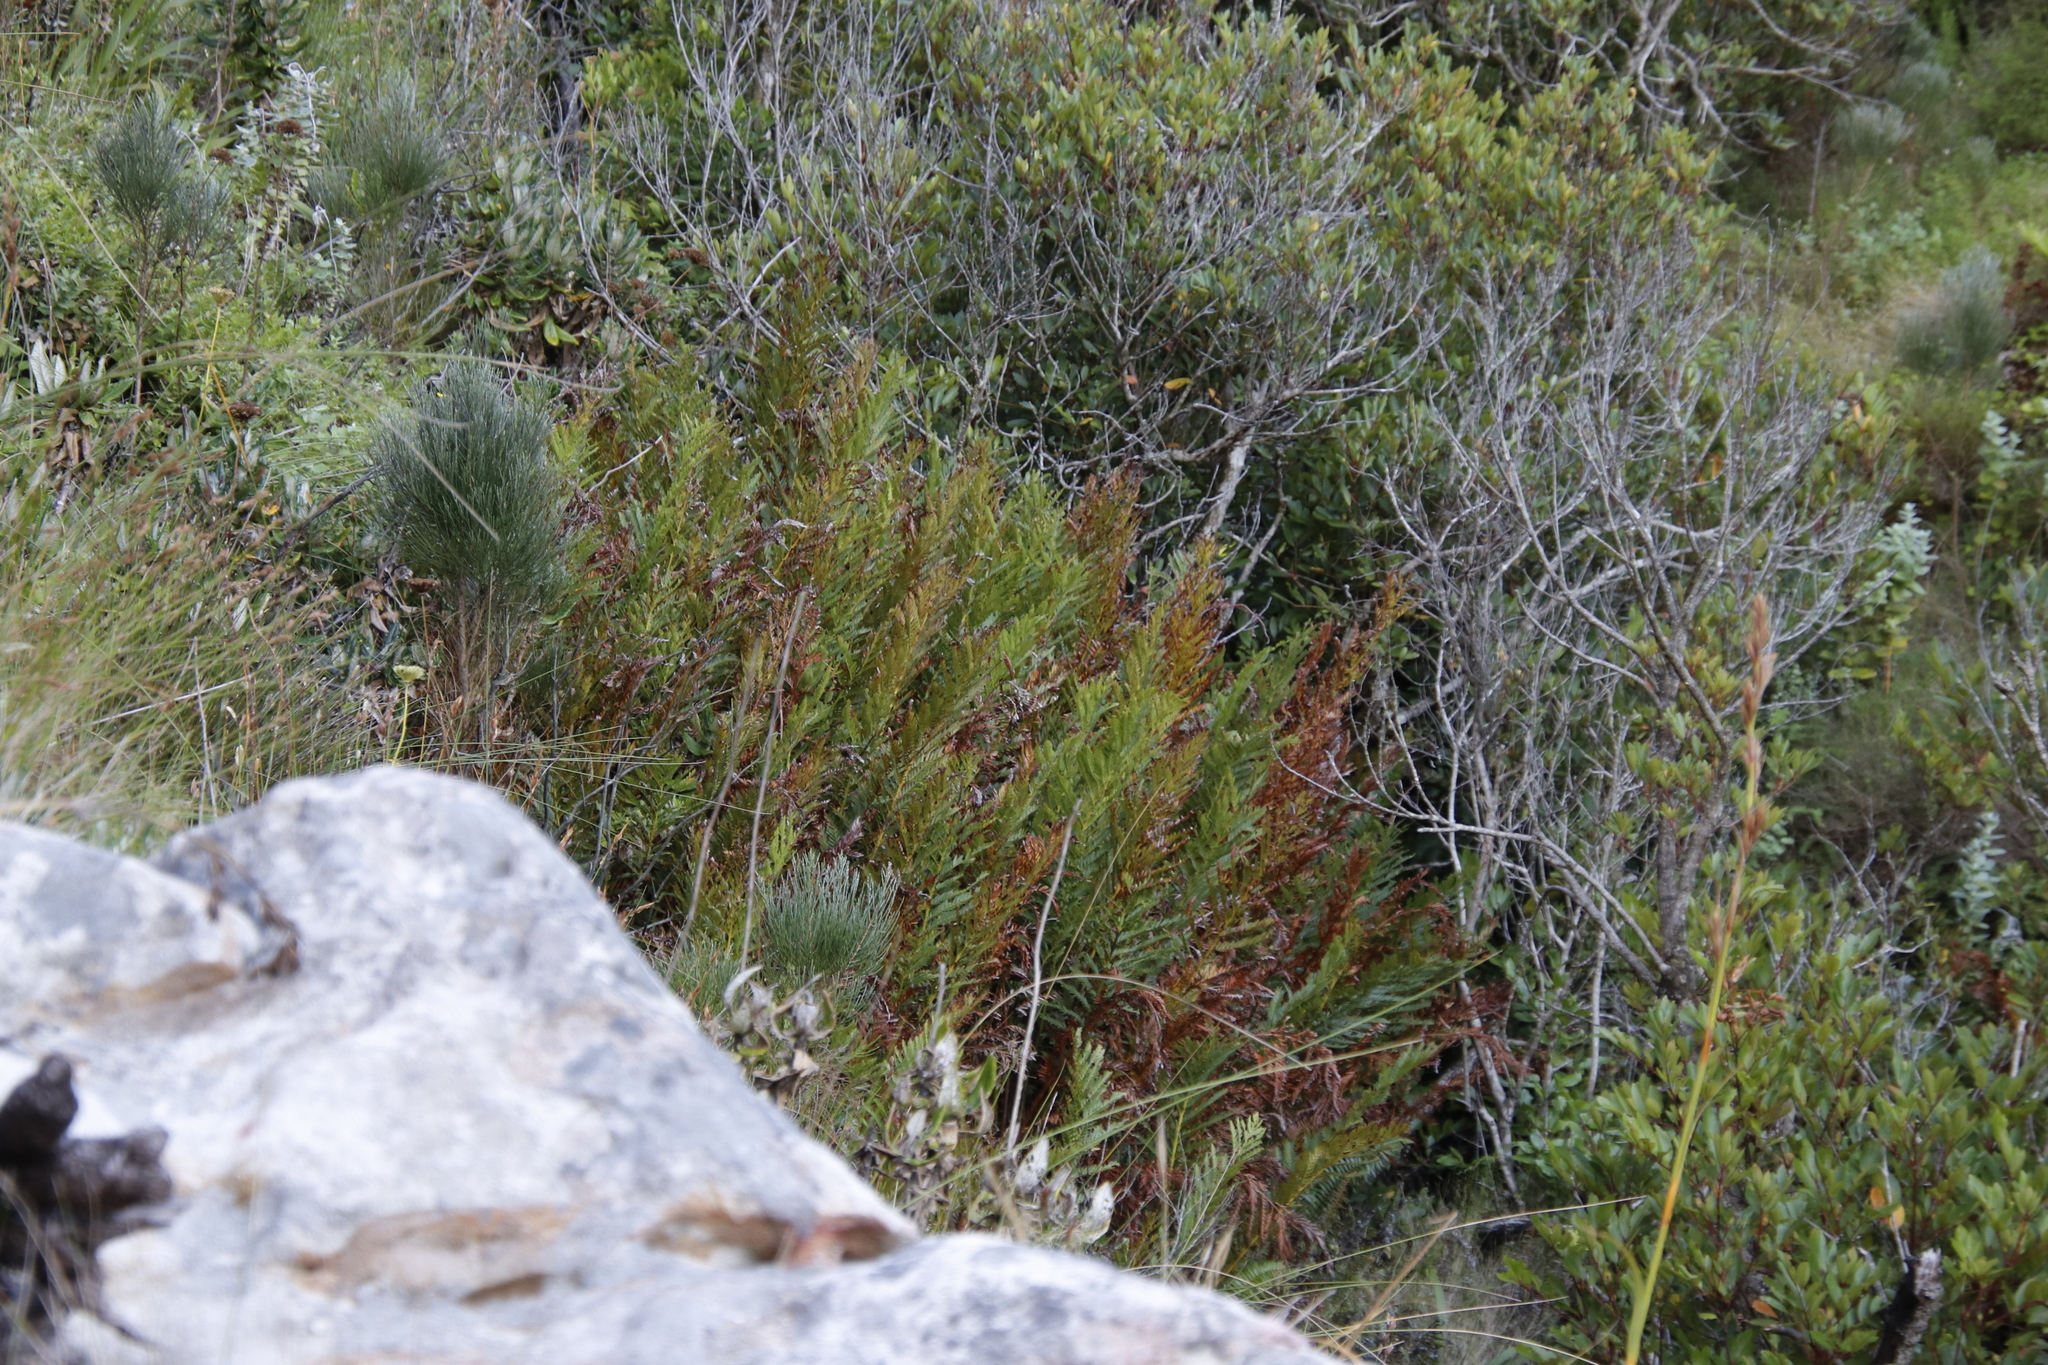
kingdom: Plantae
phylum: Tracheophyta
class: Polypodiopsida
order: Osmundales
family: Osmundaceae
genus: Todea
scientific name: Todea barbara
